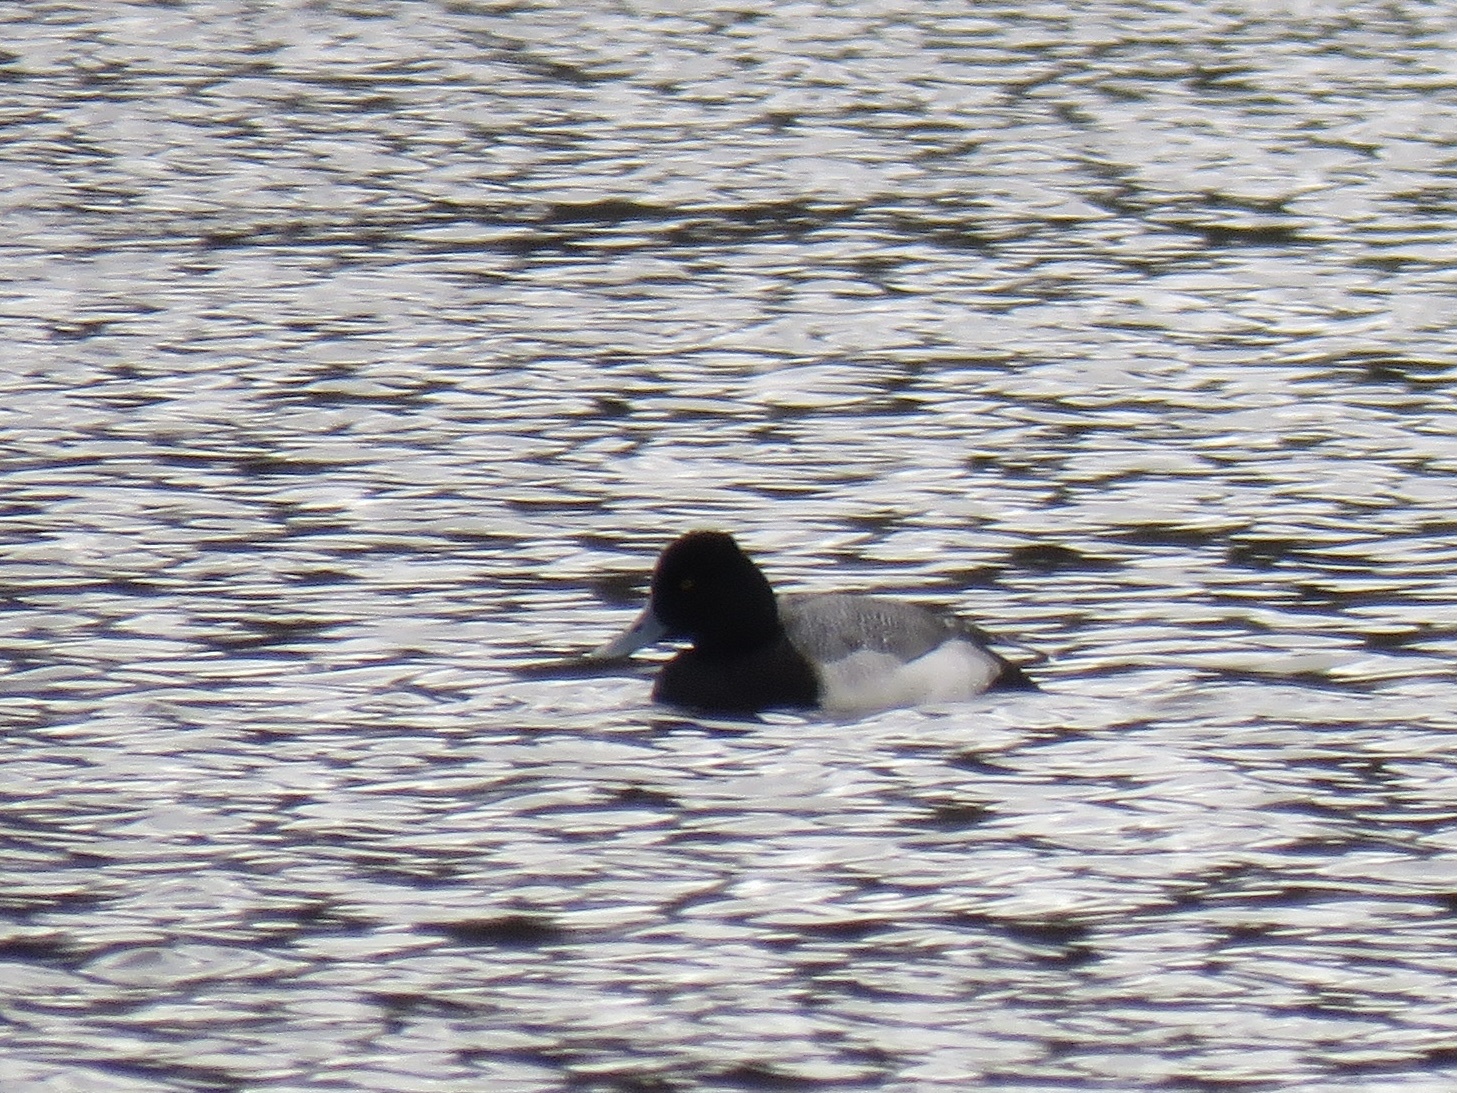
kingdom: Animalia
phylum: Chordata
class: Aves
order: Anseriformes
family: Anatidae
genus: Aythya
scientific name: Aythya affinis
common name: Lesser scaup
